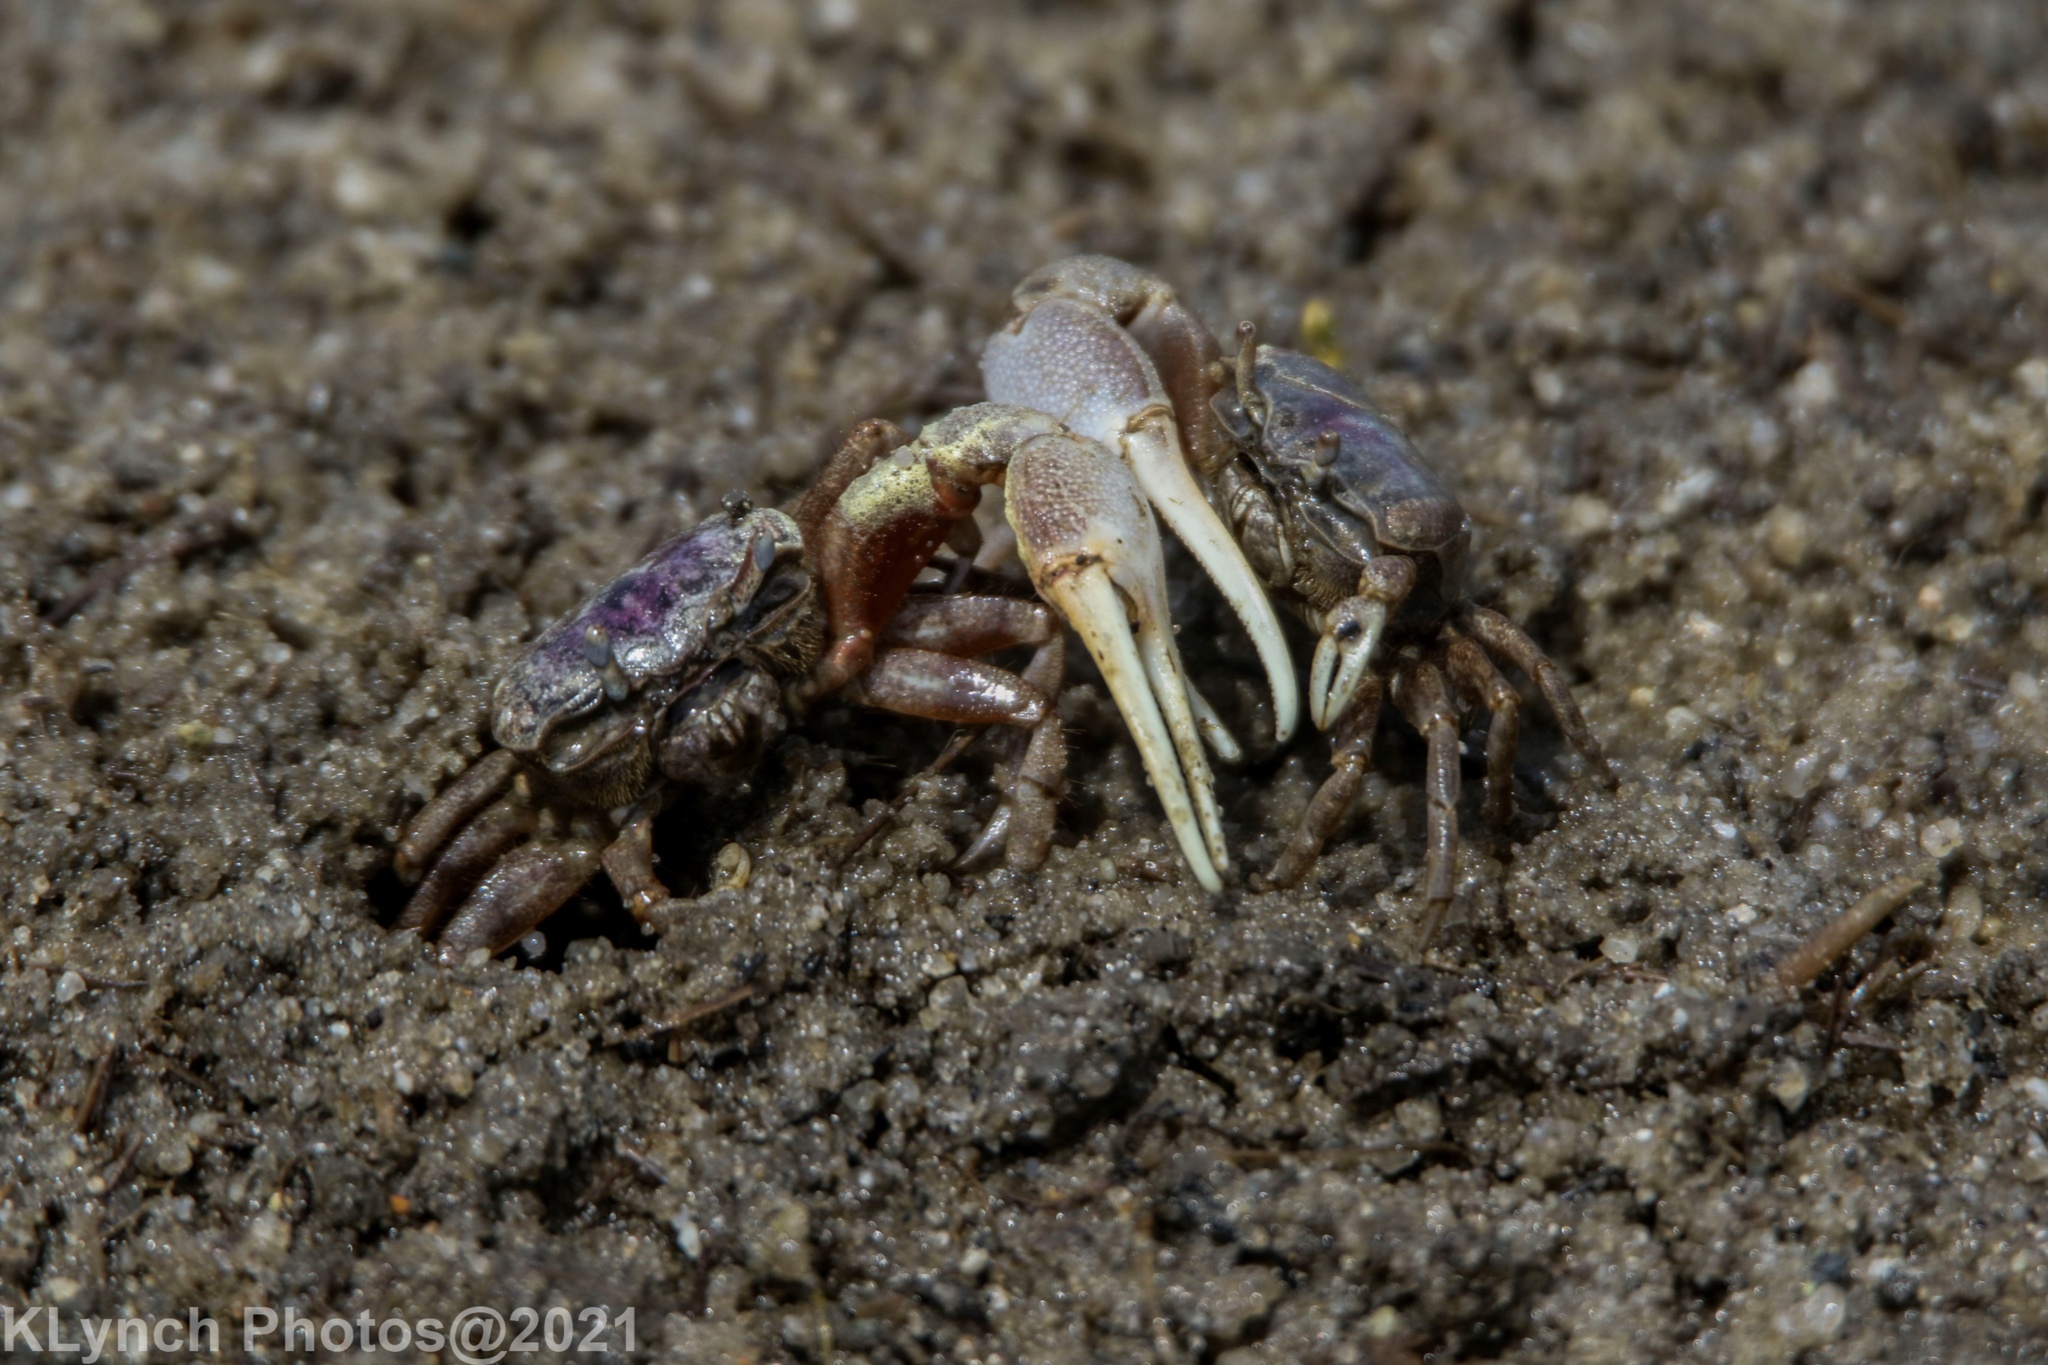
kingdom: Animalia
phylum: Arthropoda
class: Malacostraca
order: Decapoda
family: Ocypodidae
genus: Leptuca
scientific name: Leptuca pugilator
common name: Atlantic sand fiddler crab
